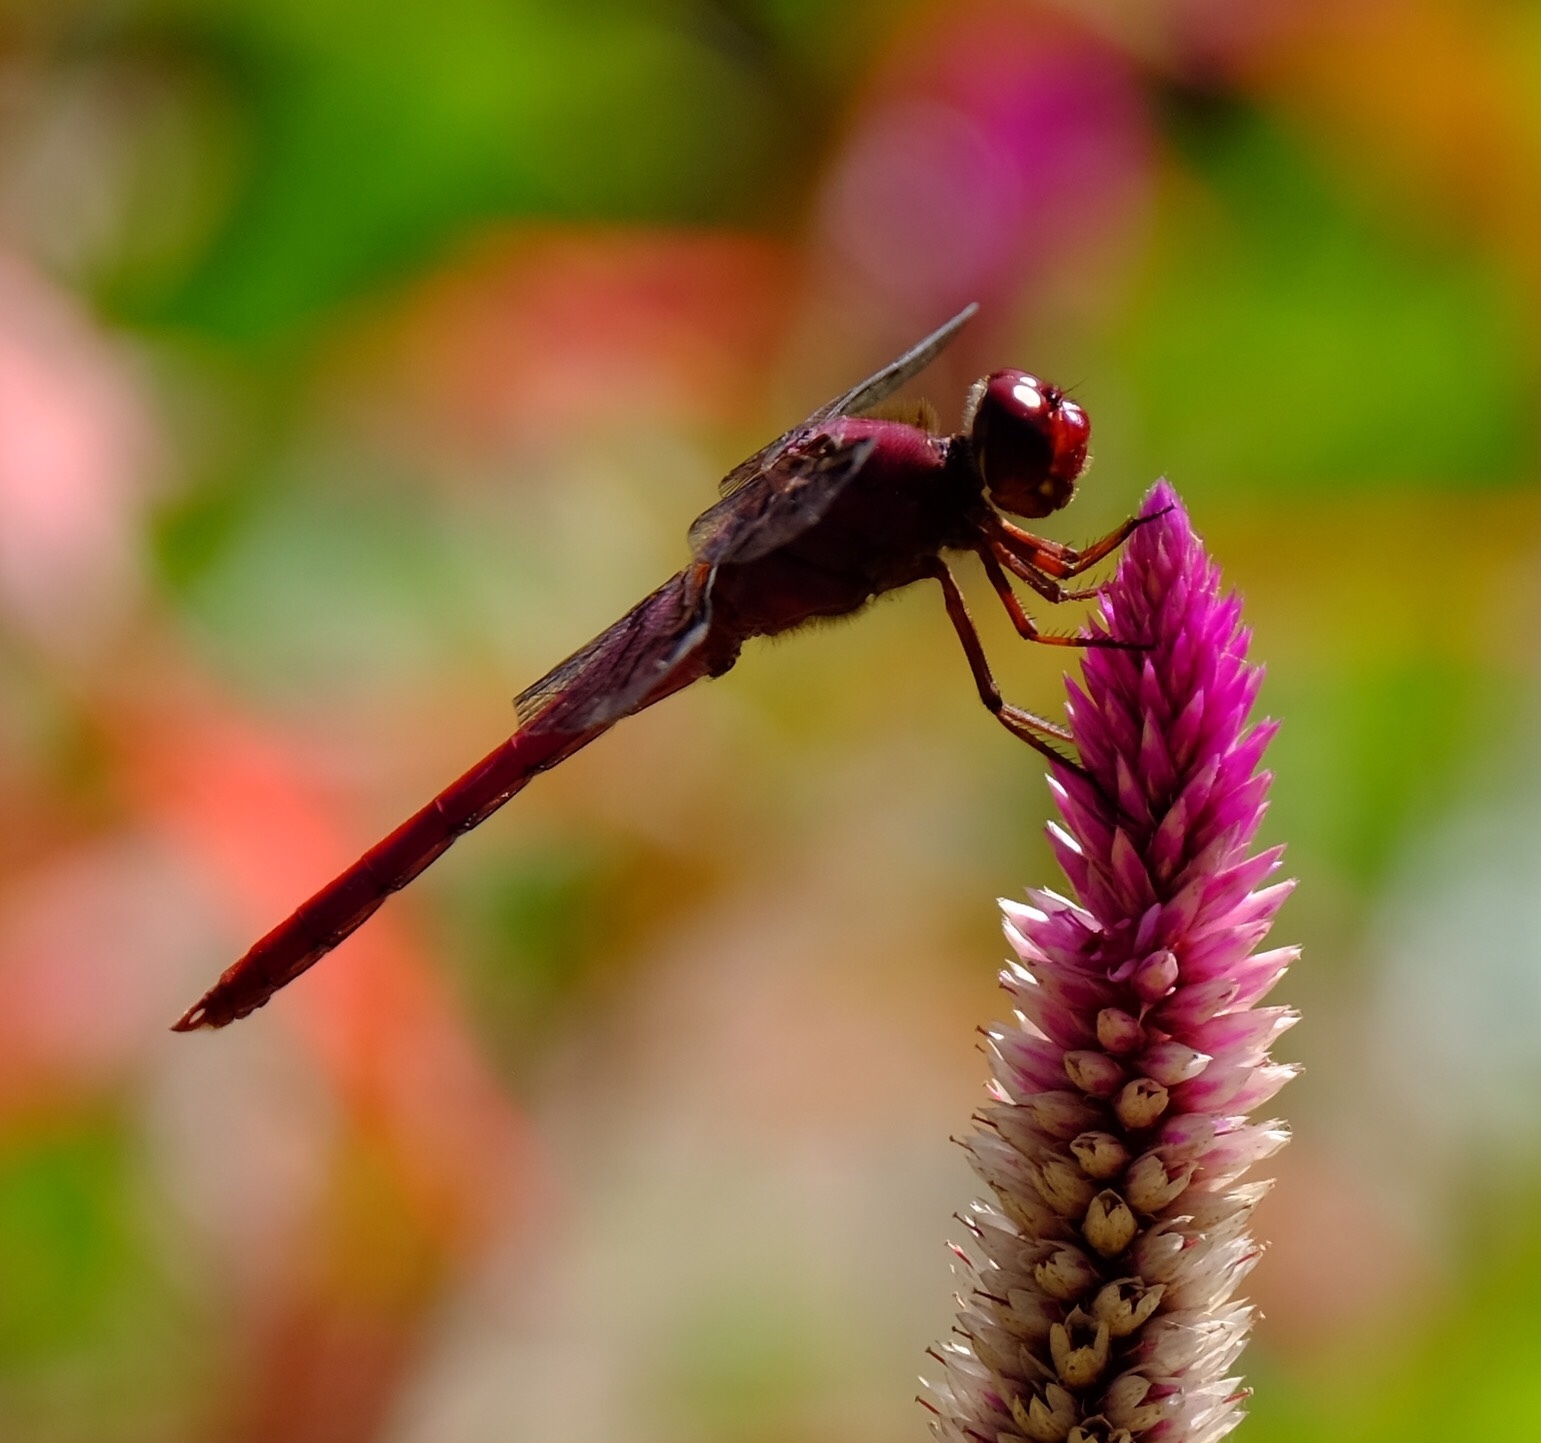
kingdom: Animalia
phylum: Arthropoda
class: Insecta
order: Odonata
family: Libellulidae
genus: Orthemis
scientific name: Orthemis discolor
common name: Carmine skimmer
